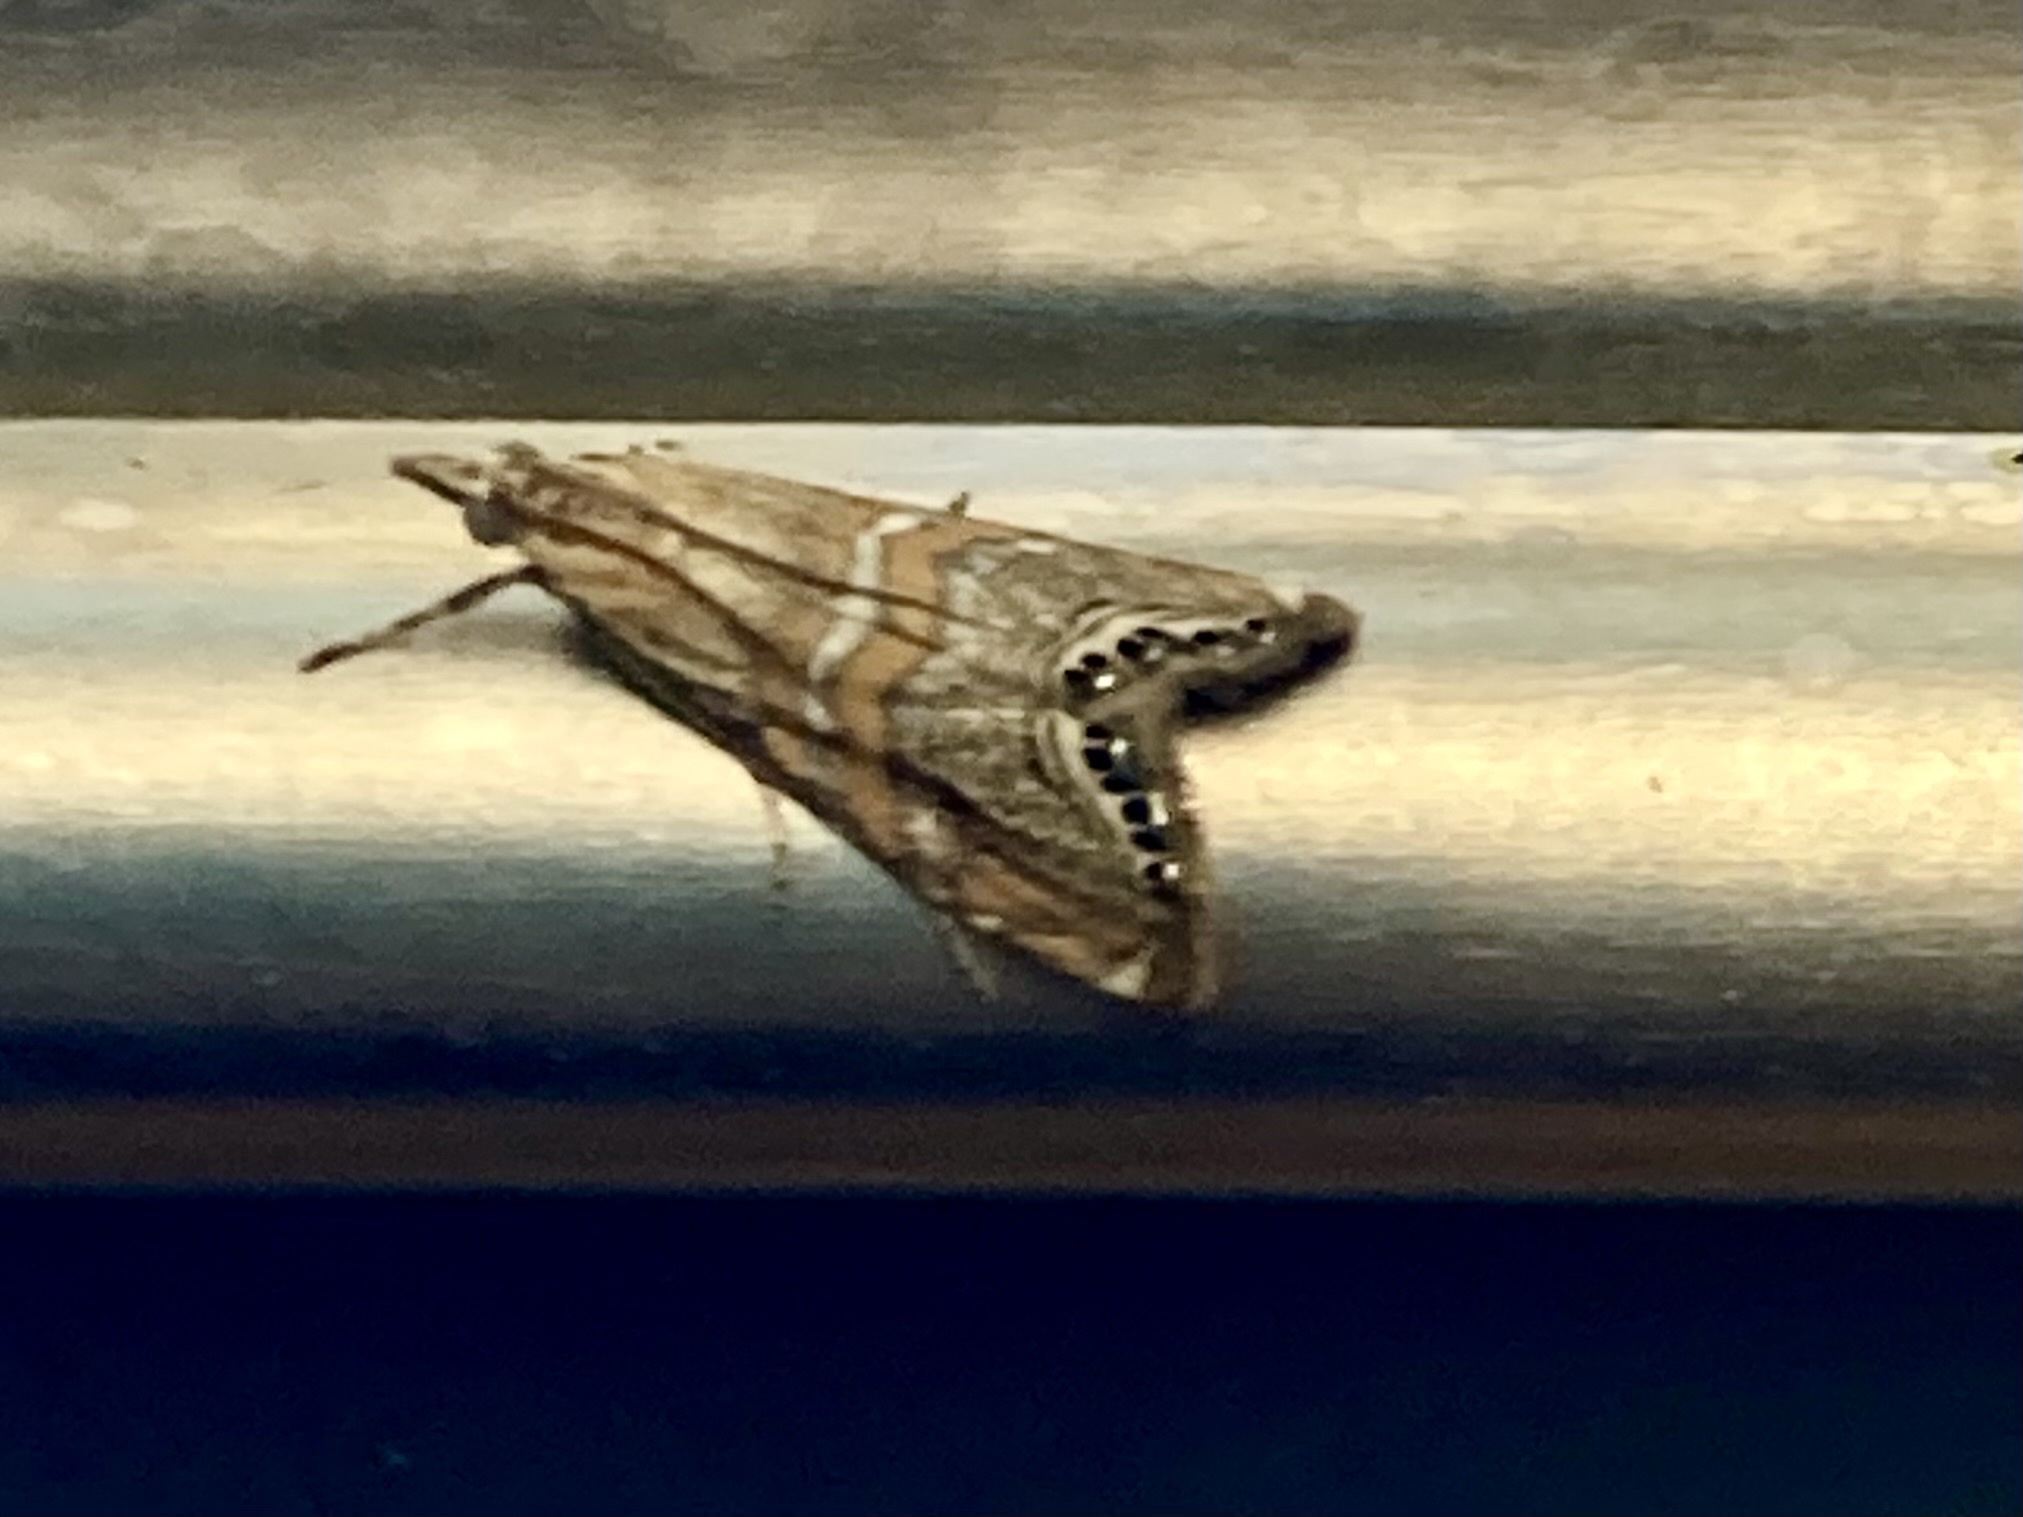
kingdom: Animalia
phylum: Arthropoda
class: Insecta
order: Lepidoptera
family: Crambidae
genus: Euchromius
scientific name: Euchromius bella
